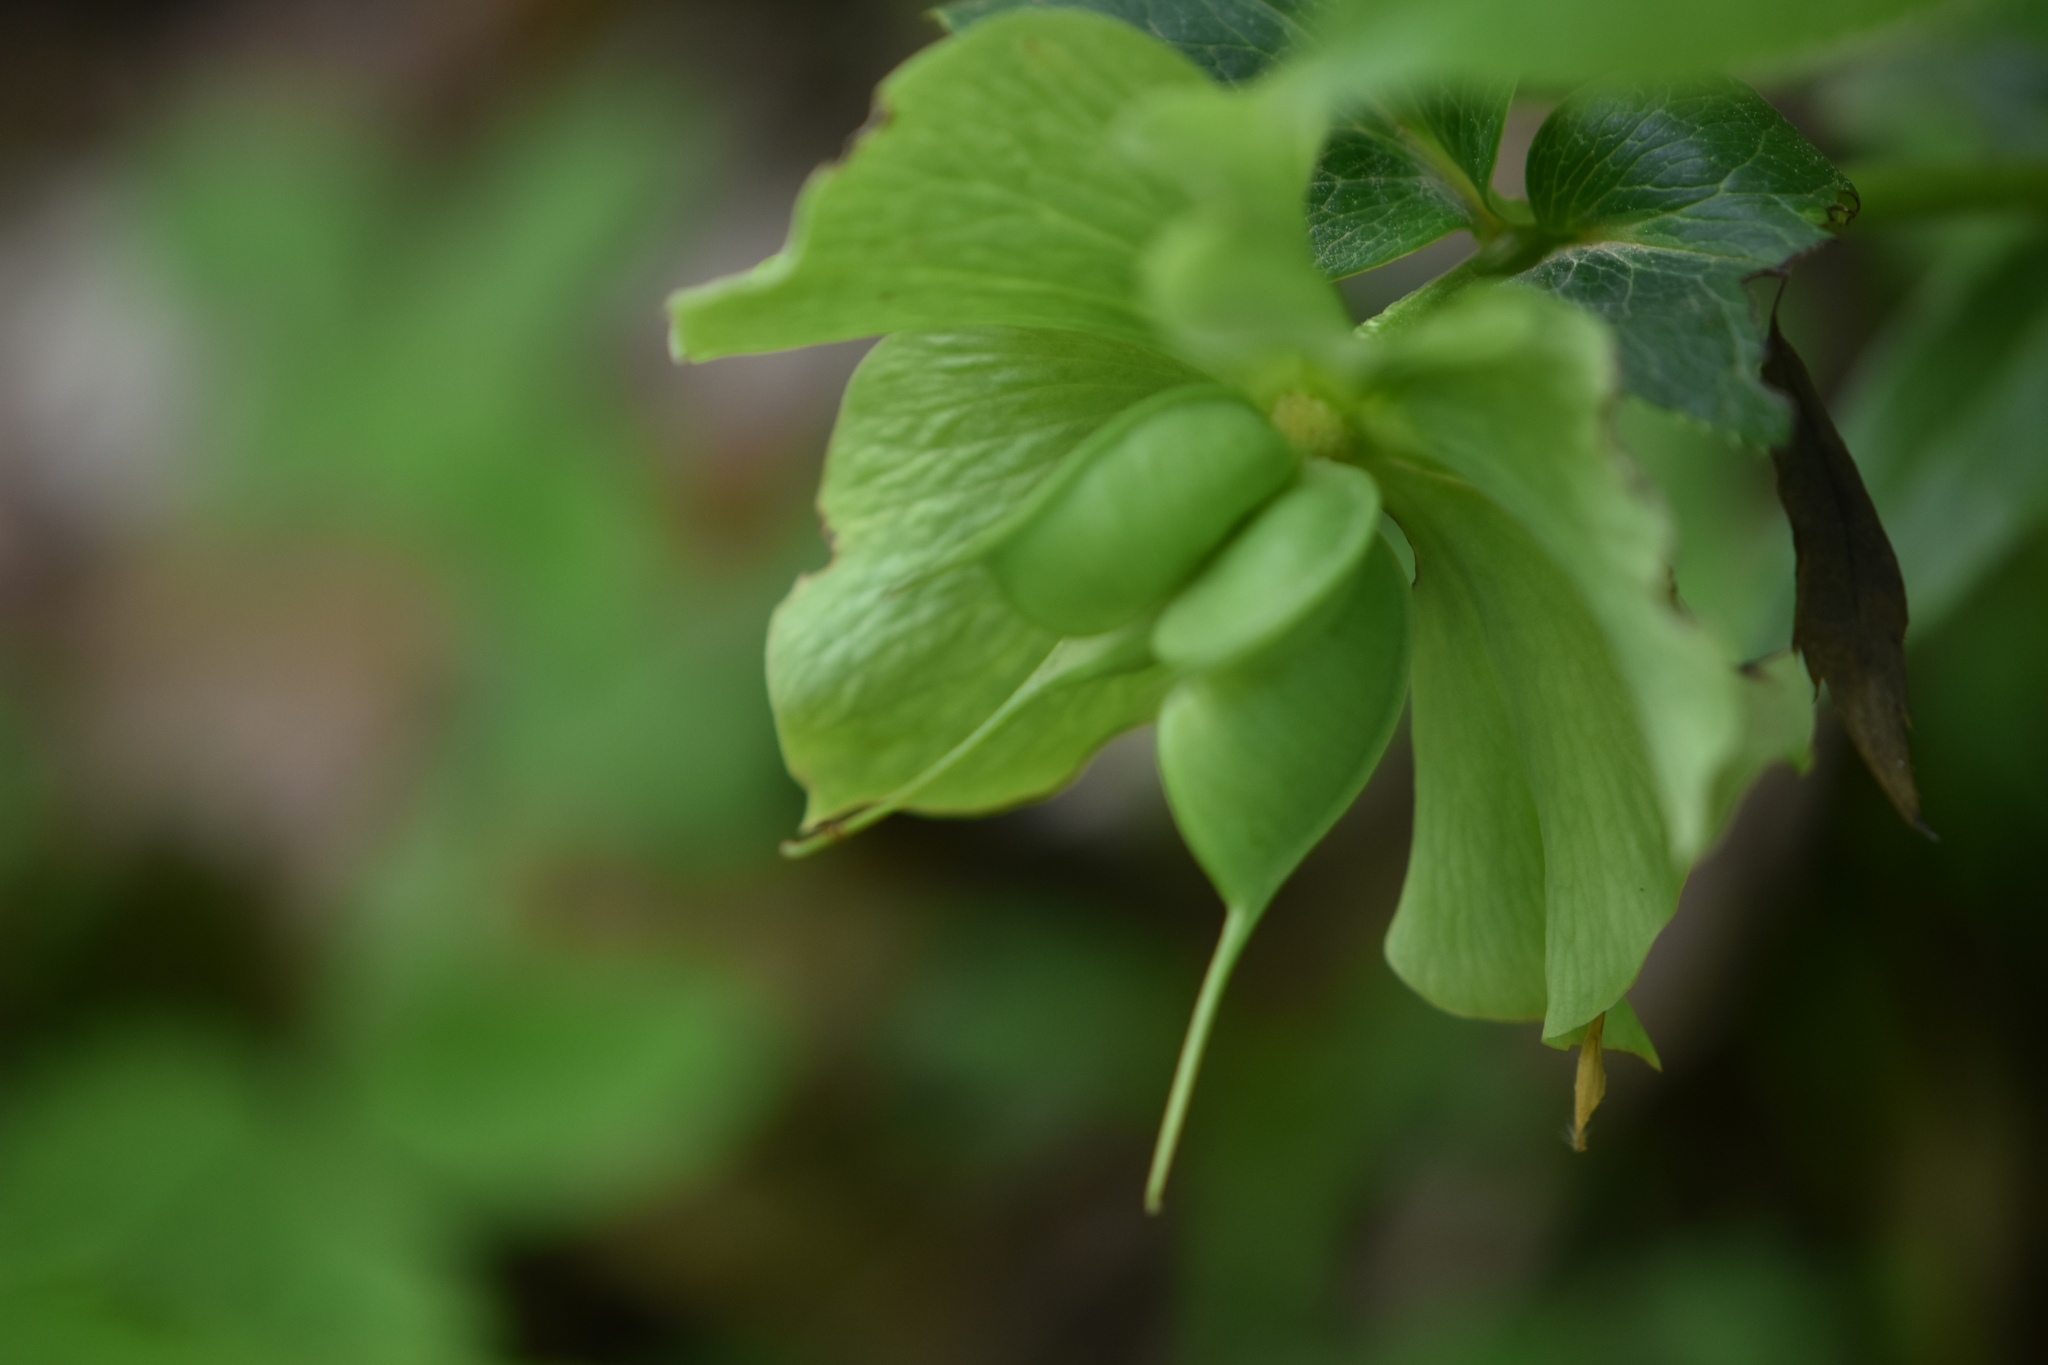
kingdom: Plantae
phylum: Tracheophyta
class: Magnoliopsida
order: Ranunculales
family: Ranunculaceae
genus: Helleborus
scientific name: Helleborus orientalis
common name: Lenten-rose
